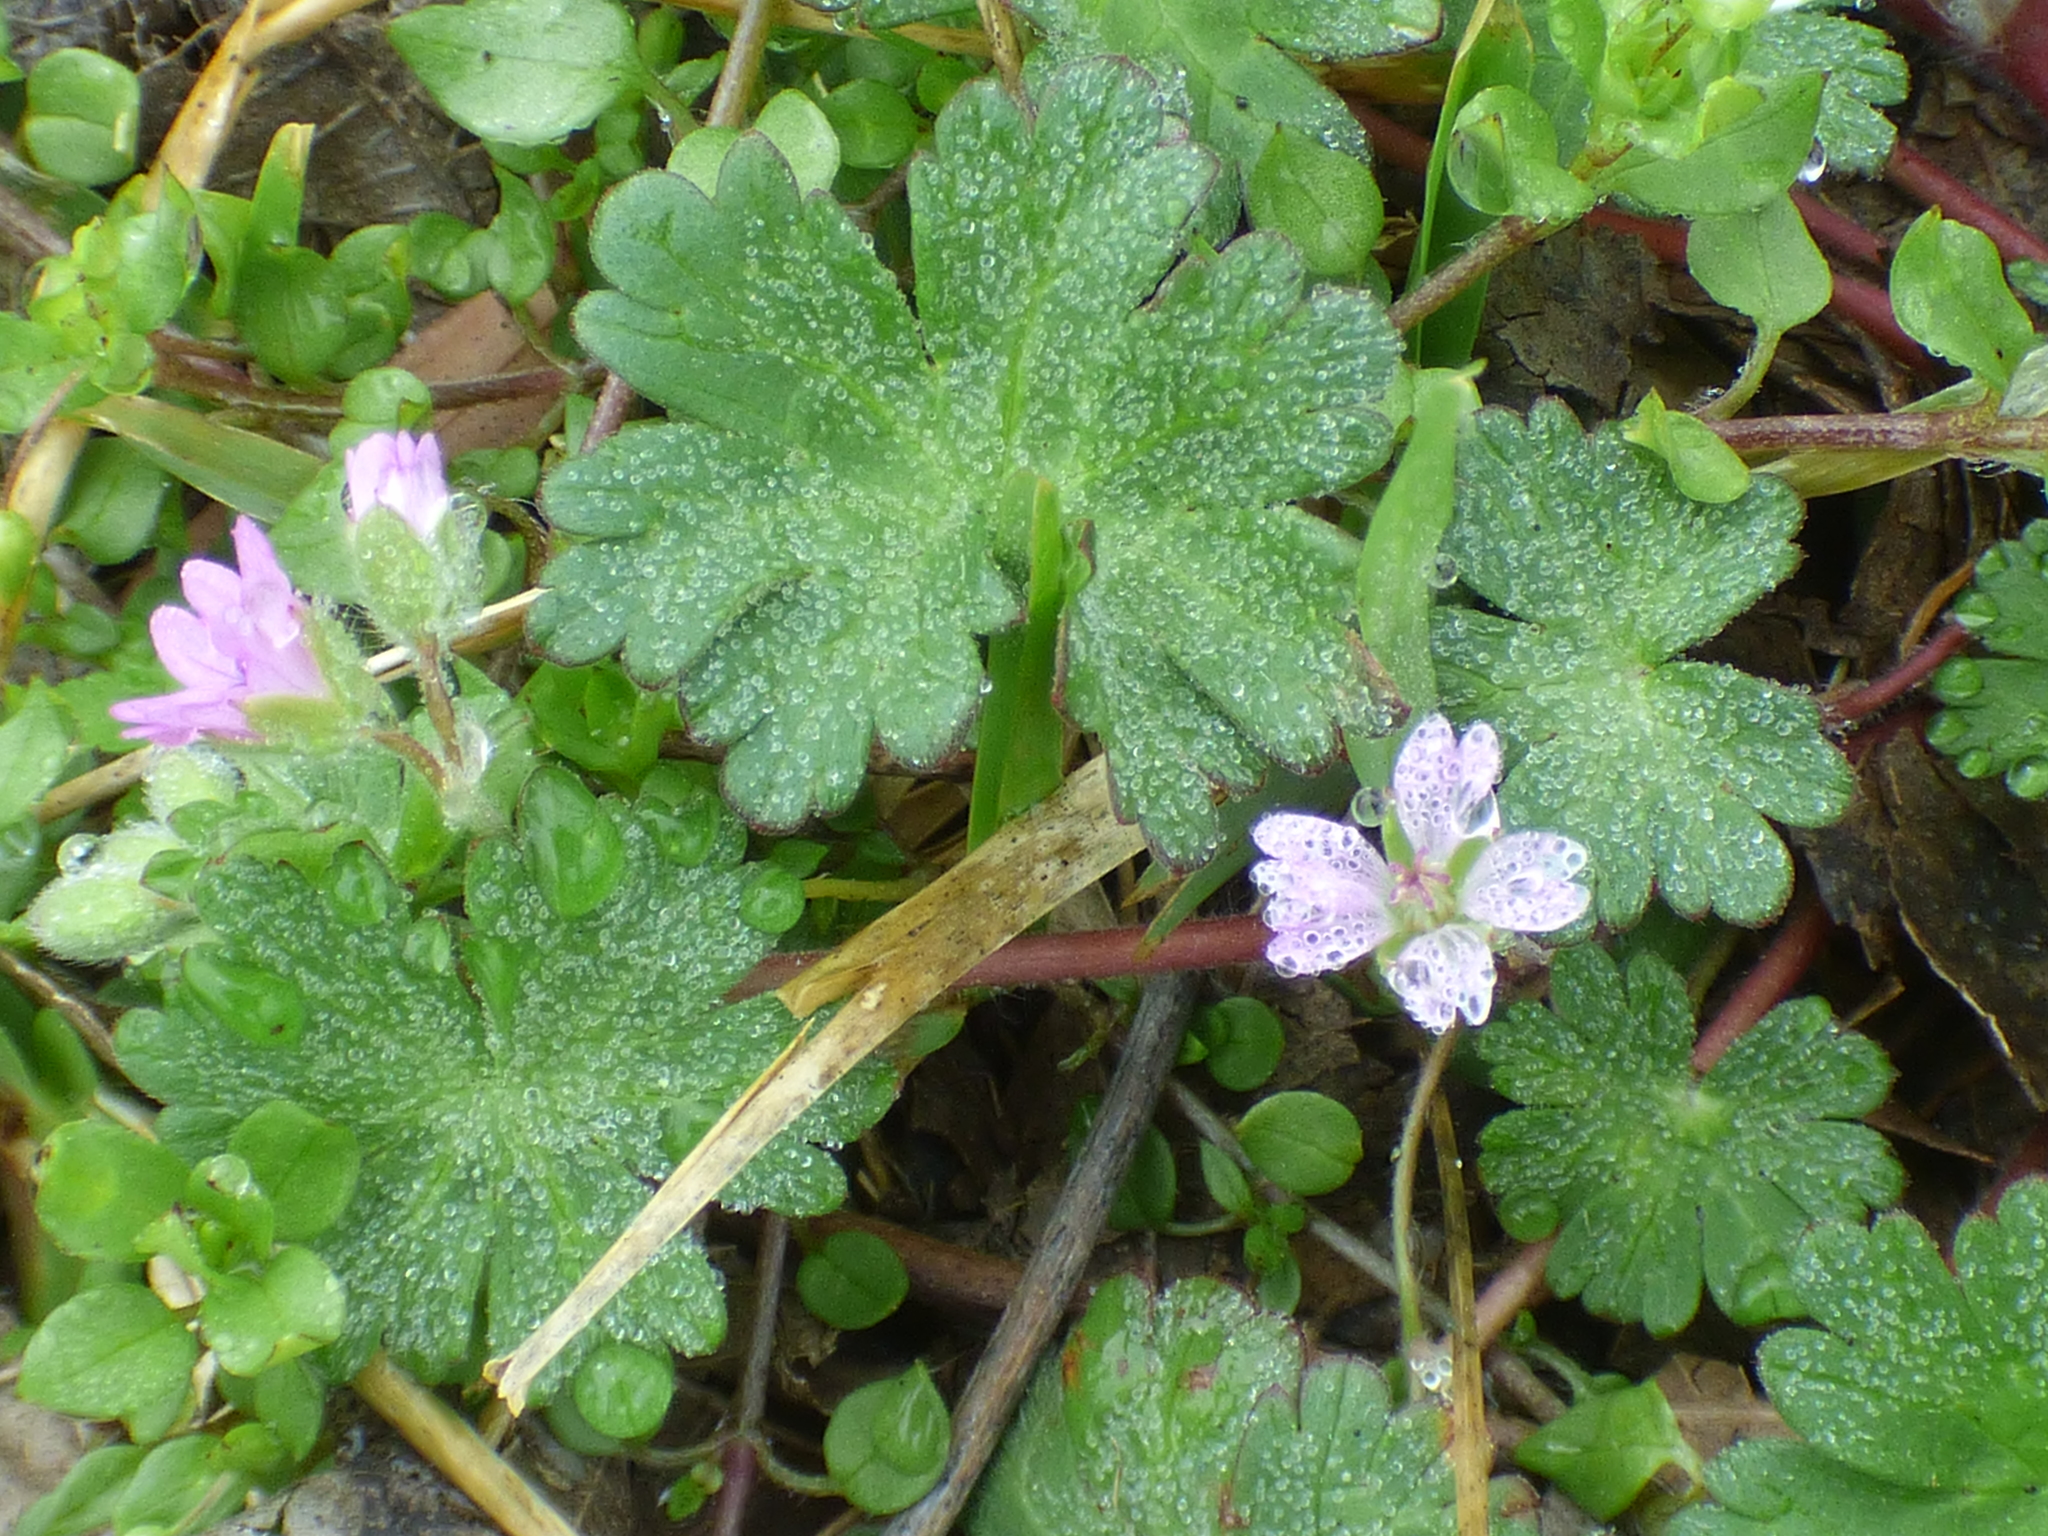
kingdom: Plantae
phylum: Tracheophyta
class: Magnoliopsida
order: Geraniales
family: Geraniaceae
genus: Geranium
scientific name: Geranium molle
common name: Dove's-foot crane's-bill
